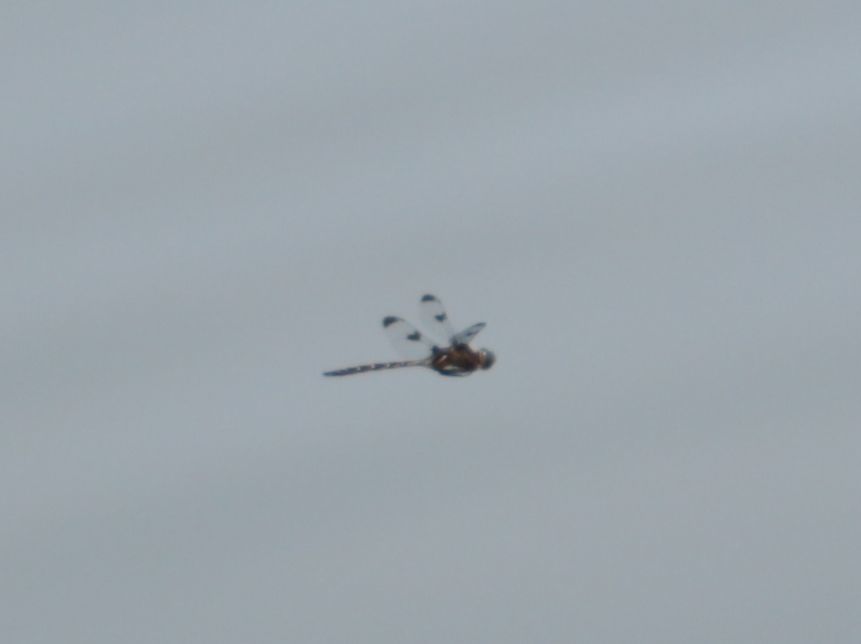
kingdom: Animalia
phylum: Arthropoda
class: Insecta
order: Odonata
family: Corduliidae
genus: Epitheca
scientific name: Epitheca princeps
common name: Prince baskettail
